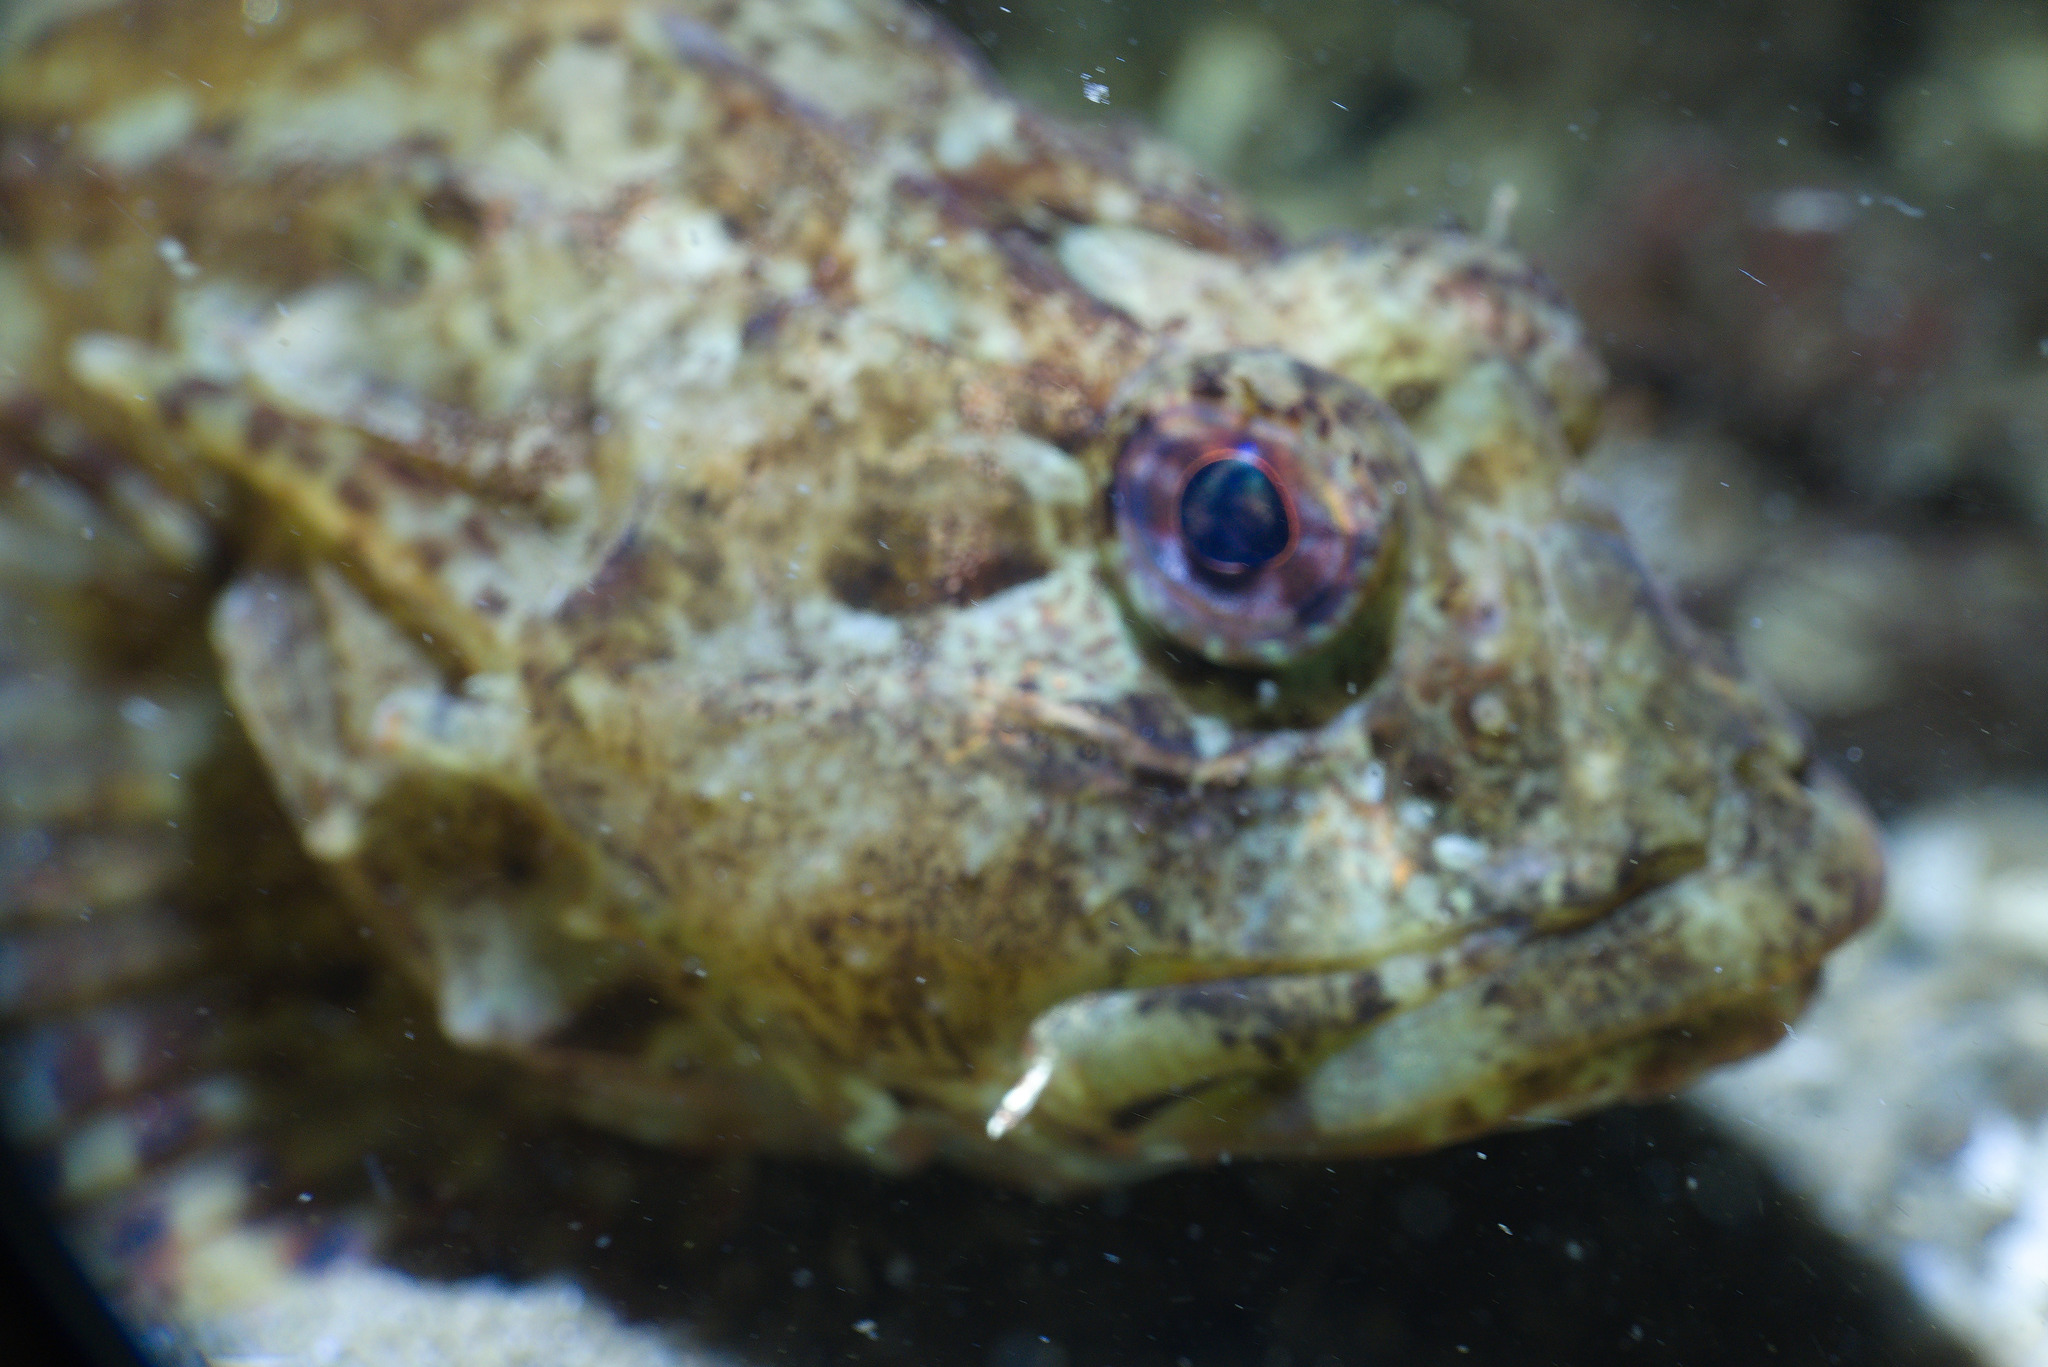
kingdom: Animalia
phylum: Chordata
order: Scorpaeniformes
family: Cottidae
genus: Taurulus
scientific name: Taurulus bubalis
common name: Sea scorpion
